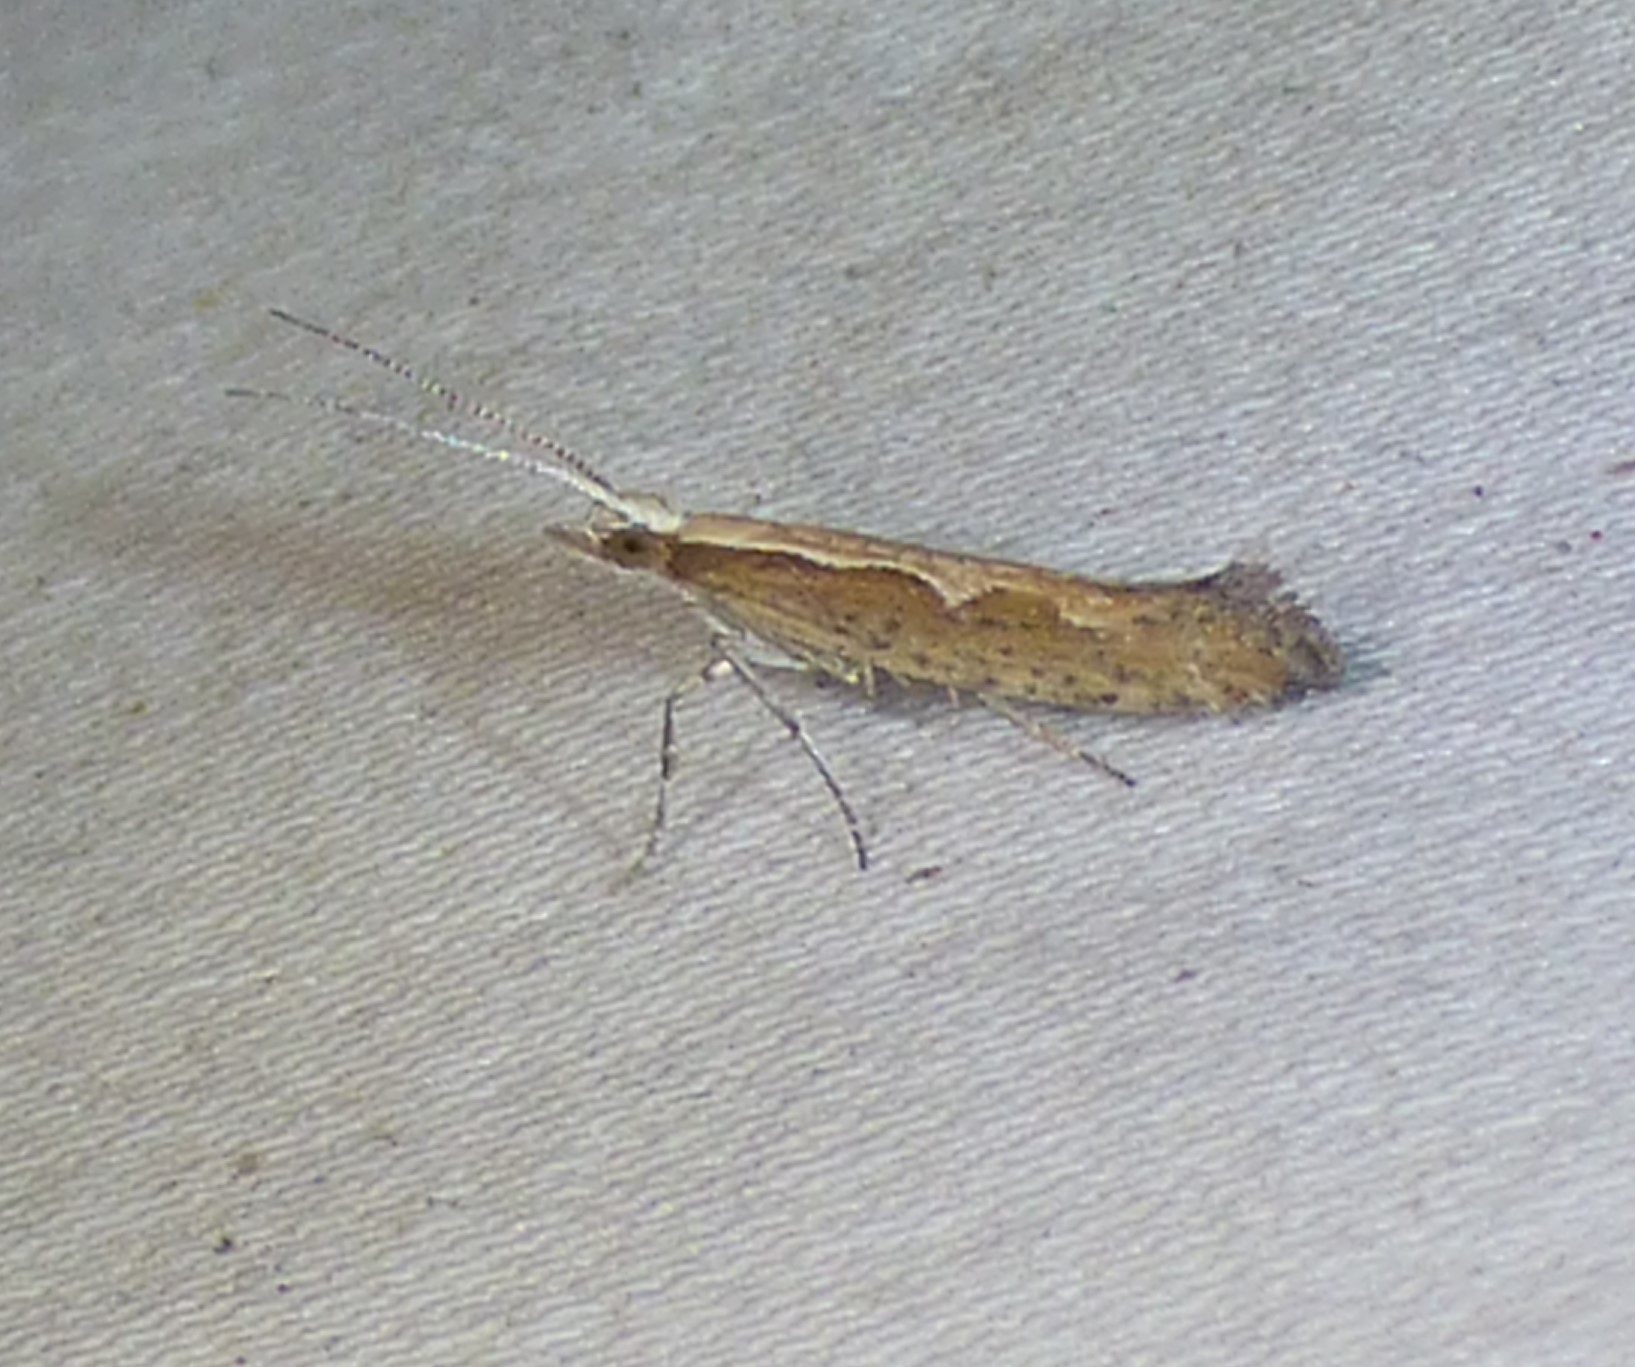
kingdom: Animalia
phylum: Arthropoda
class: Insecta
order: Lepidoptera
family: Plutellidae
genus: Plutella
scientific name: Plutella xylostella
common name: Diamond-back moth
